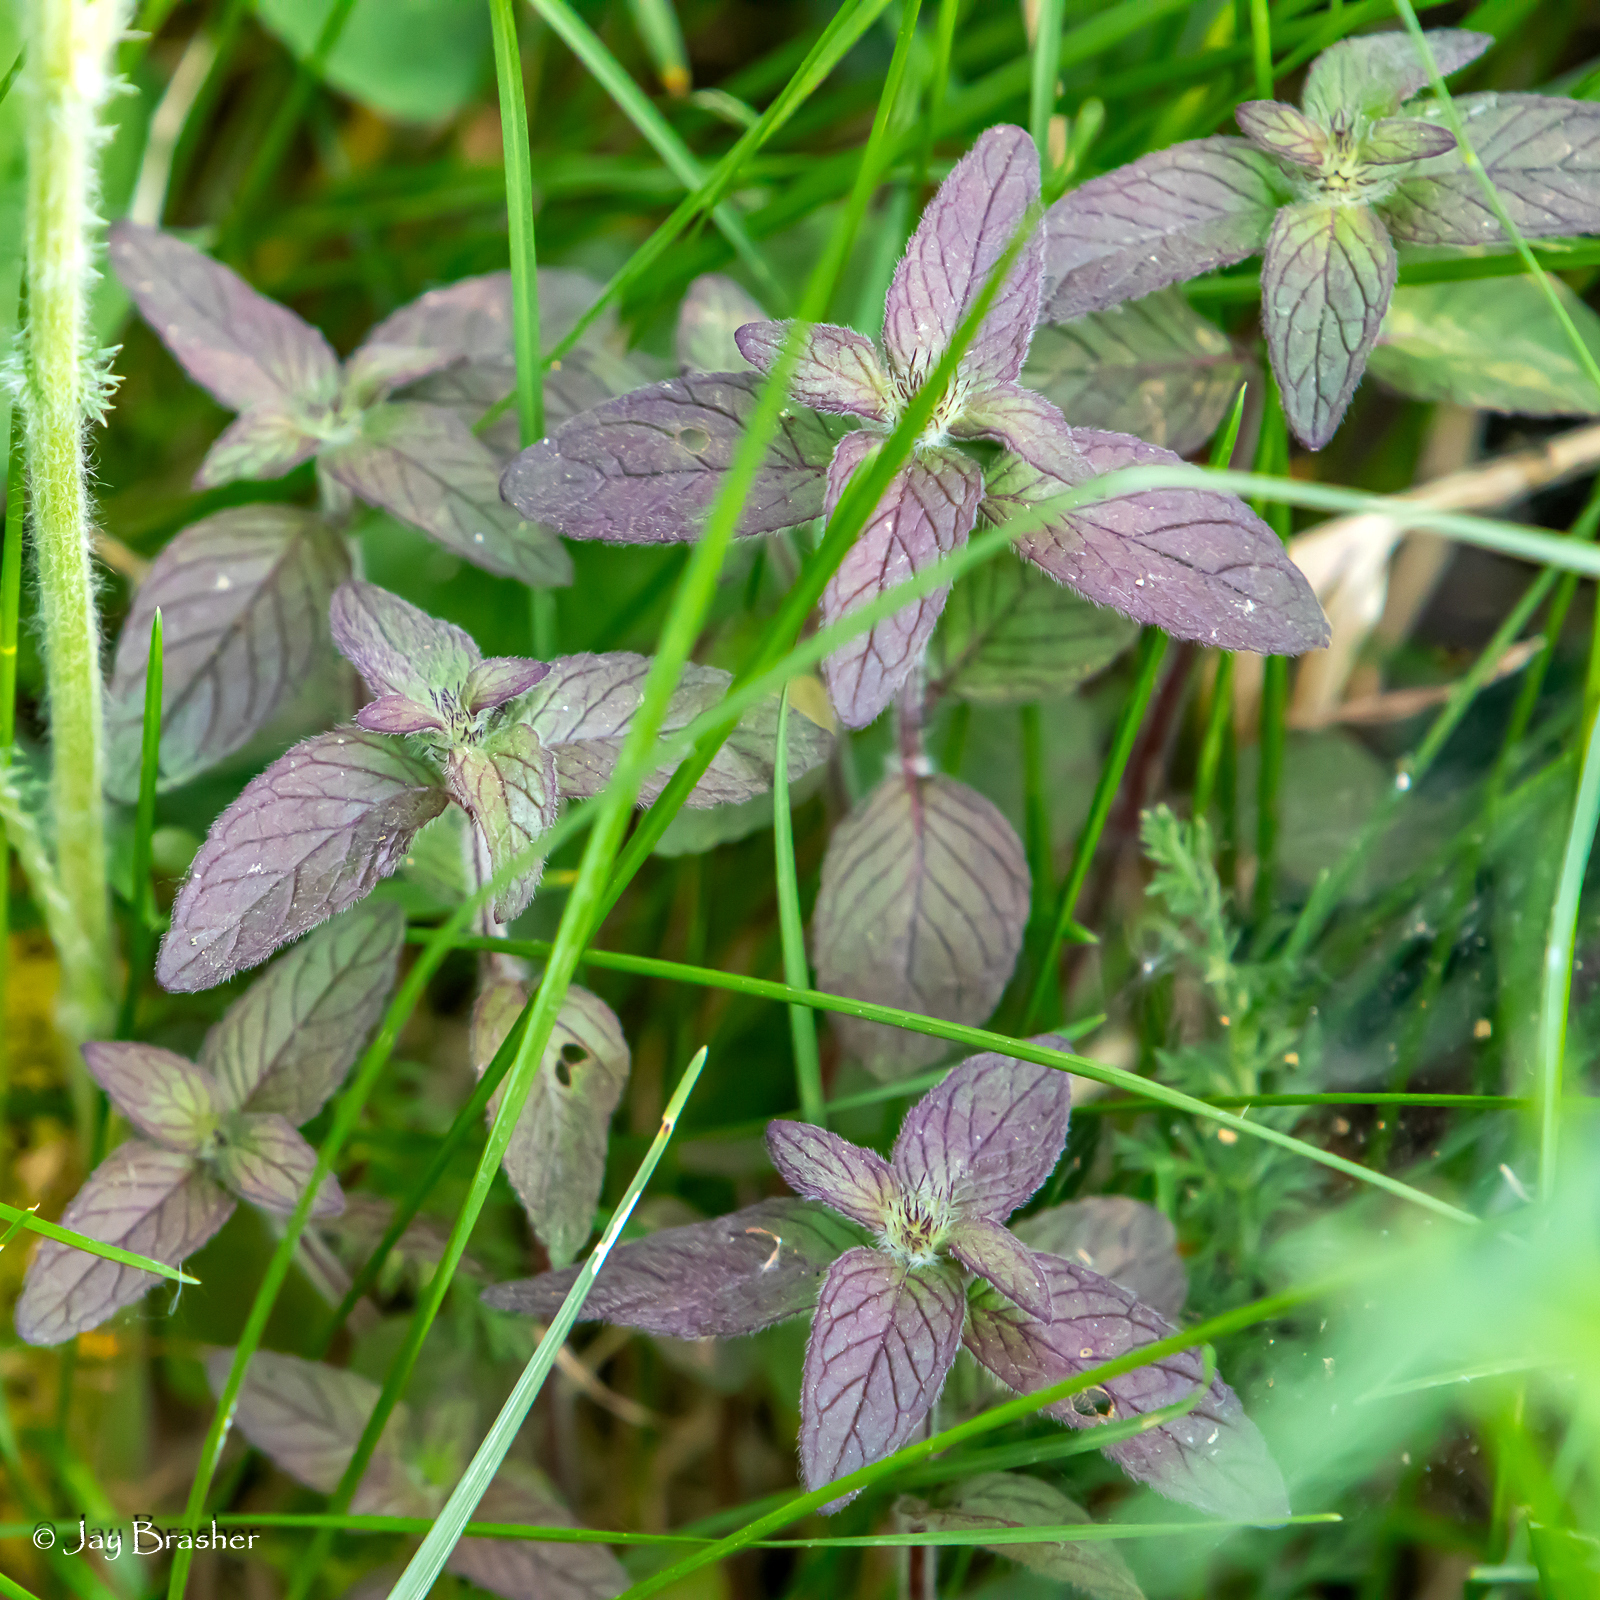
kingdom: Plantae
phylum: Tracheophyta
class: Magnoliopsida
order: Lamiales
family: Lamiaceae
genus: Clinopodium
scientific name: Clinopodium vulgare
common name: Wild basil
